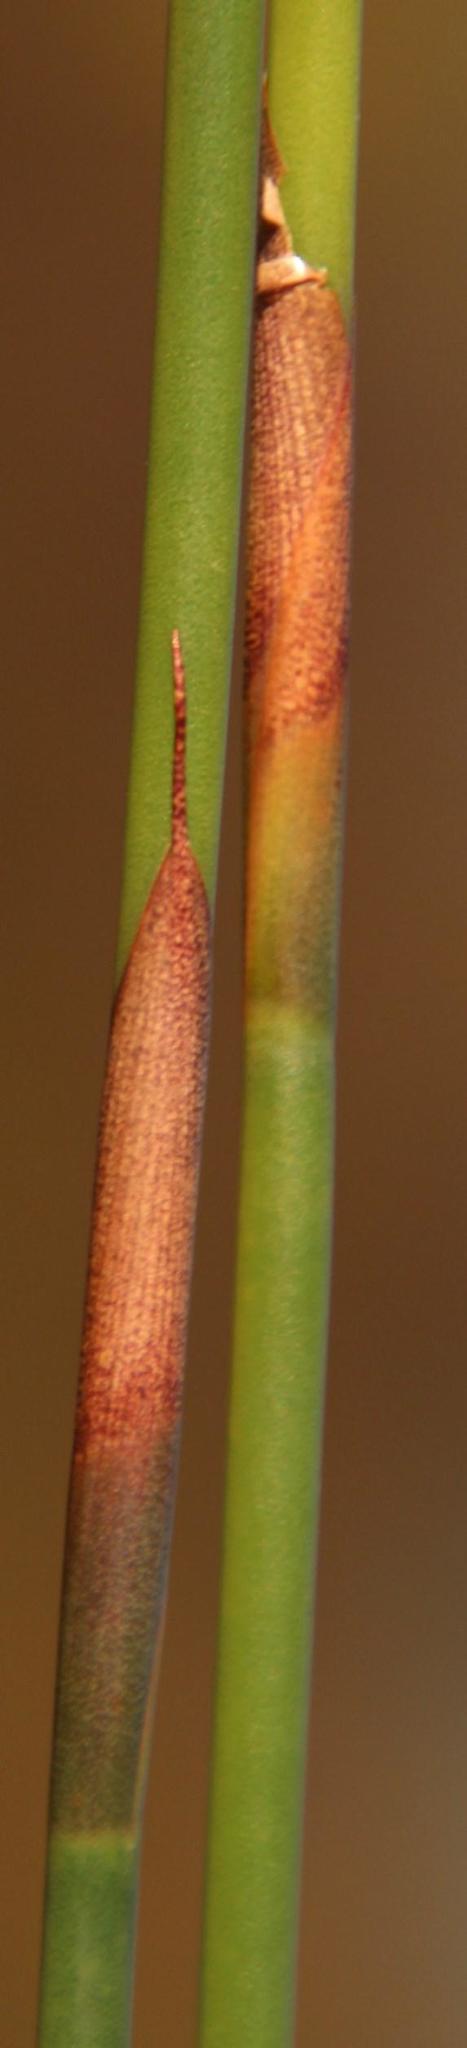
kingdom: Plantae
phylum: Tracheophyta
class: Liliopsida
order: Poales
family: Restionaceae
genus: Cannomois
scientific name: Cannomois congesta
